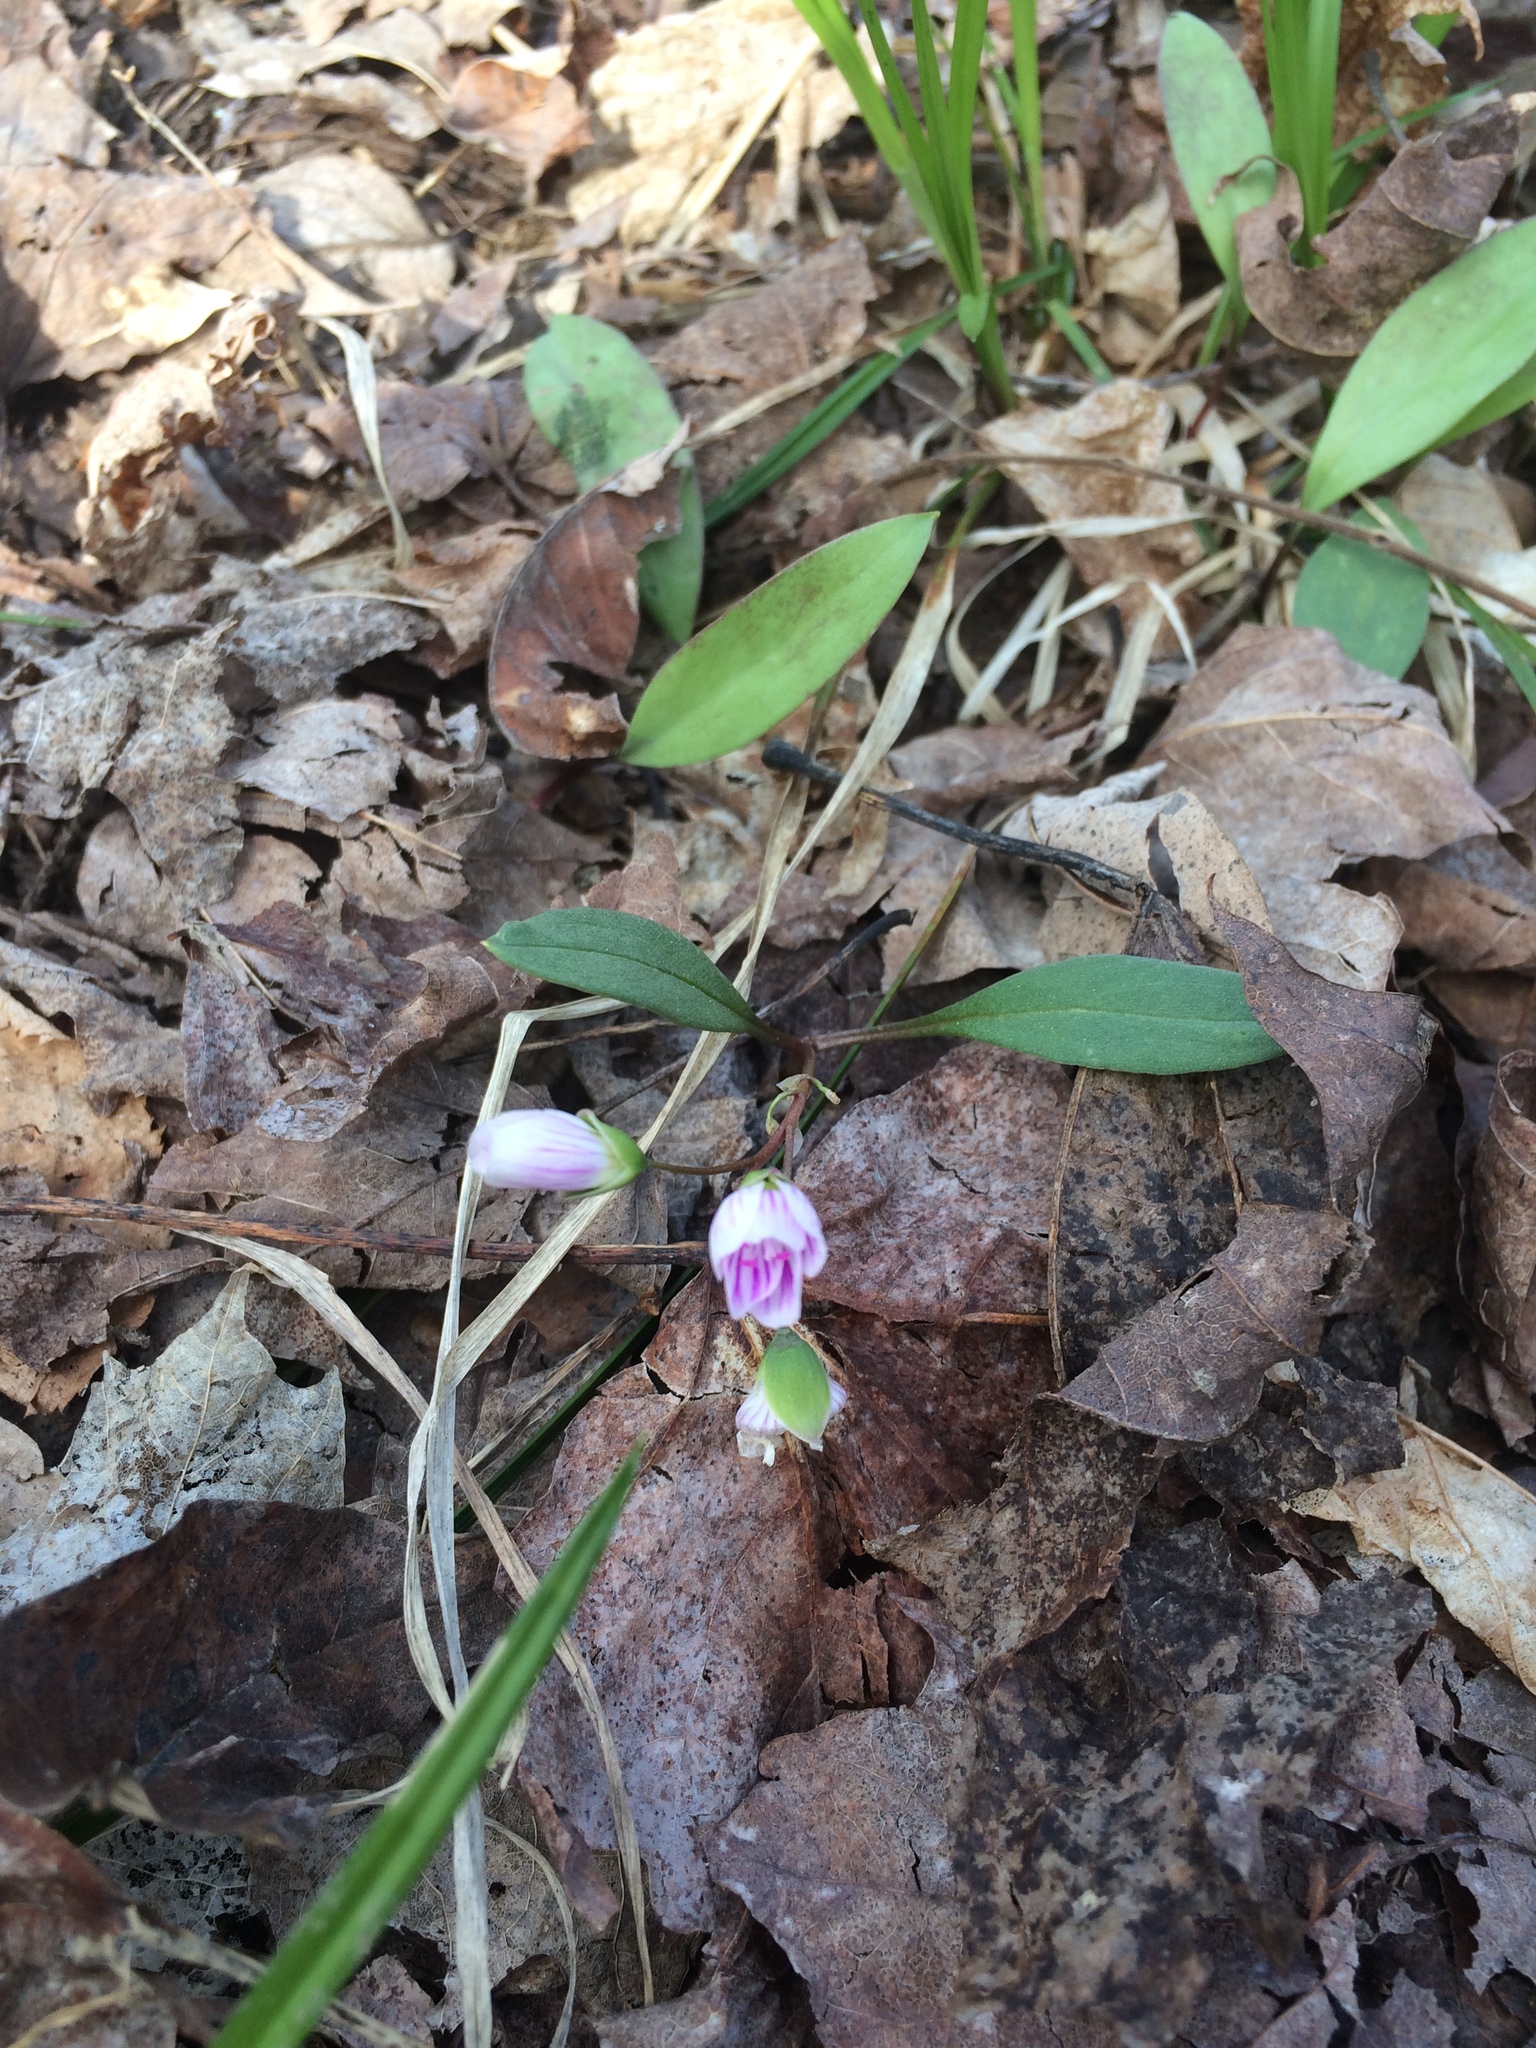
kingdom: Plantae
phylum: Tracheophyta
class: Magnoliopsida
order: Caryophyllales
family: Montiaceae
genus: Claytonia
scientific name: Claytonia caroliniana
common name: Carolina spring beauty
